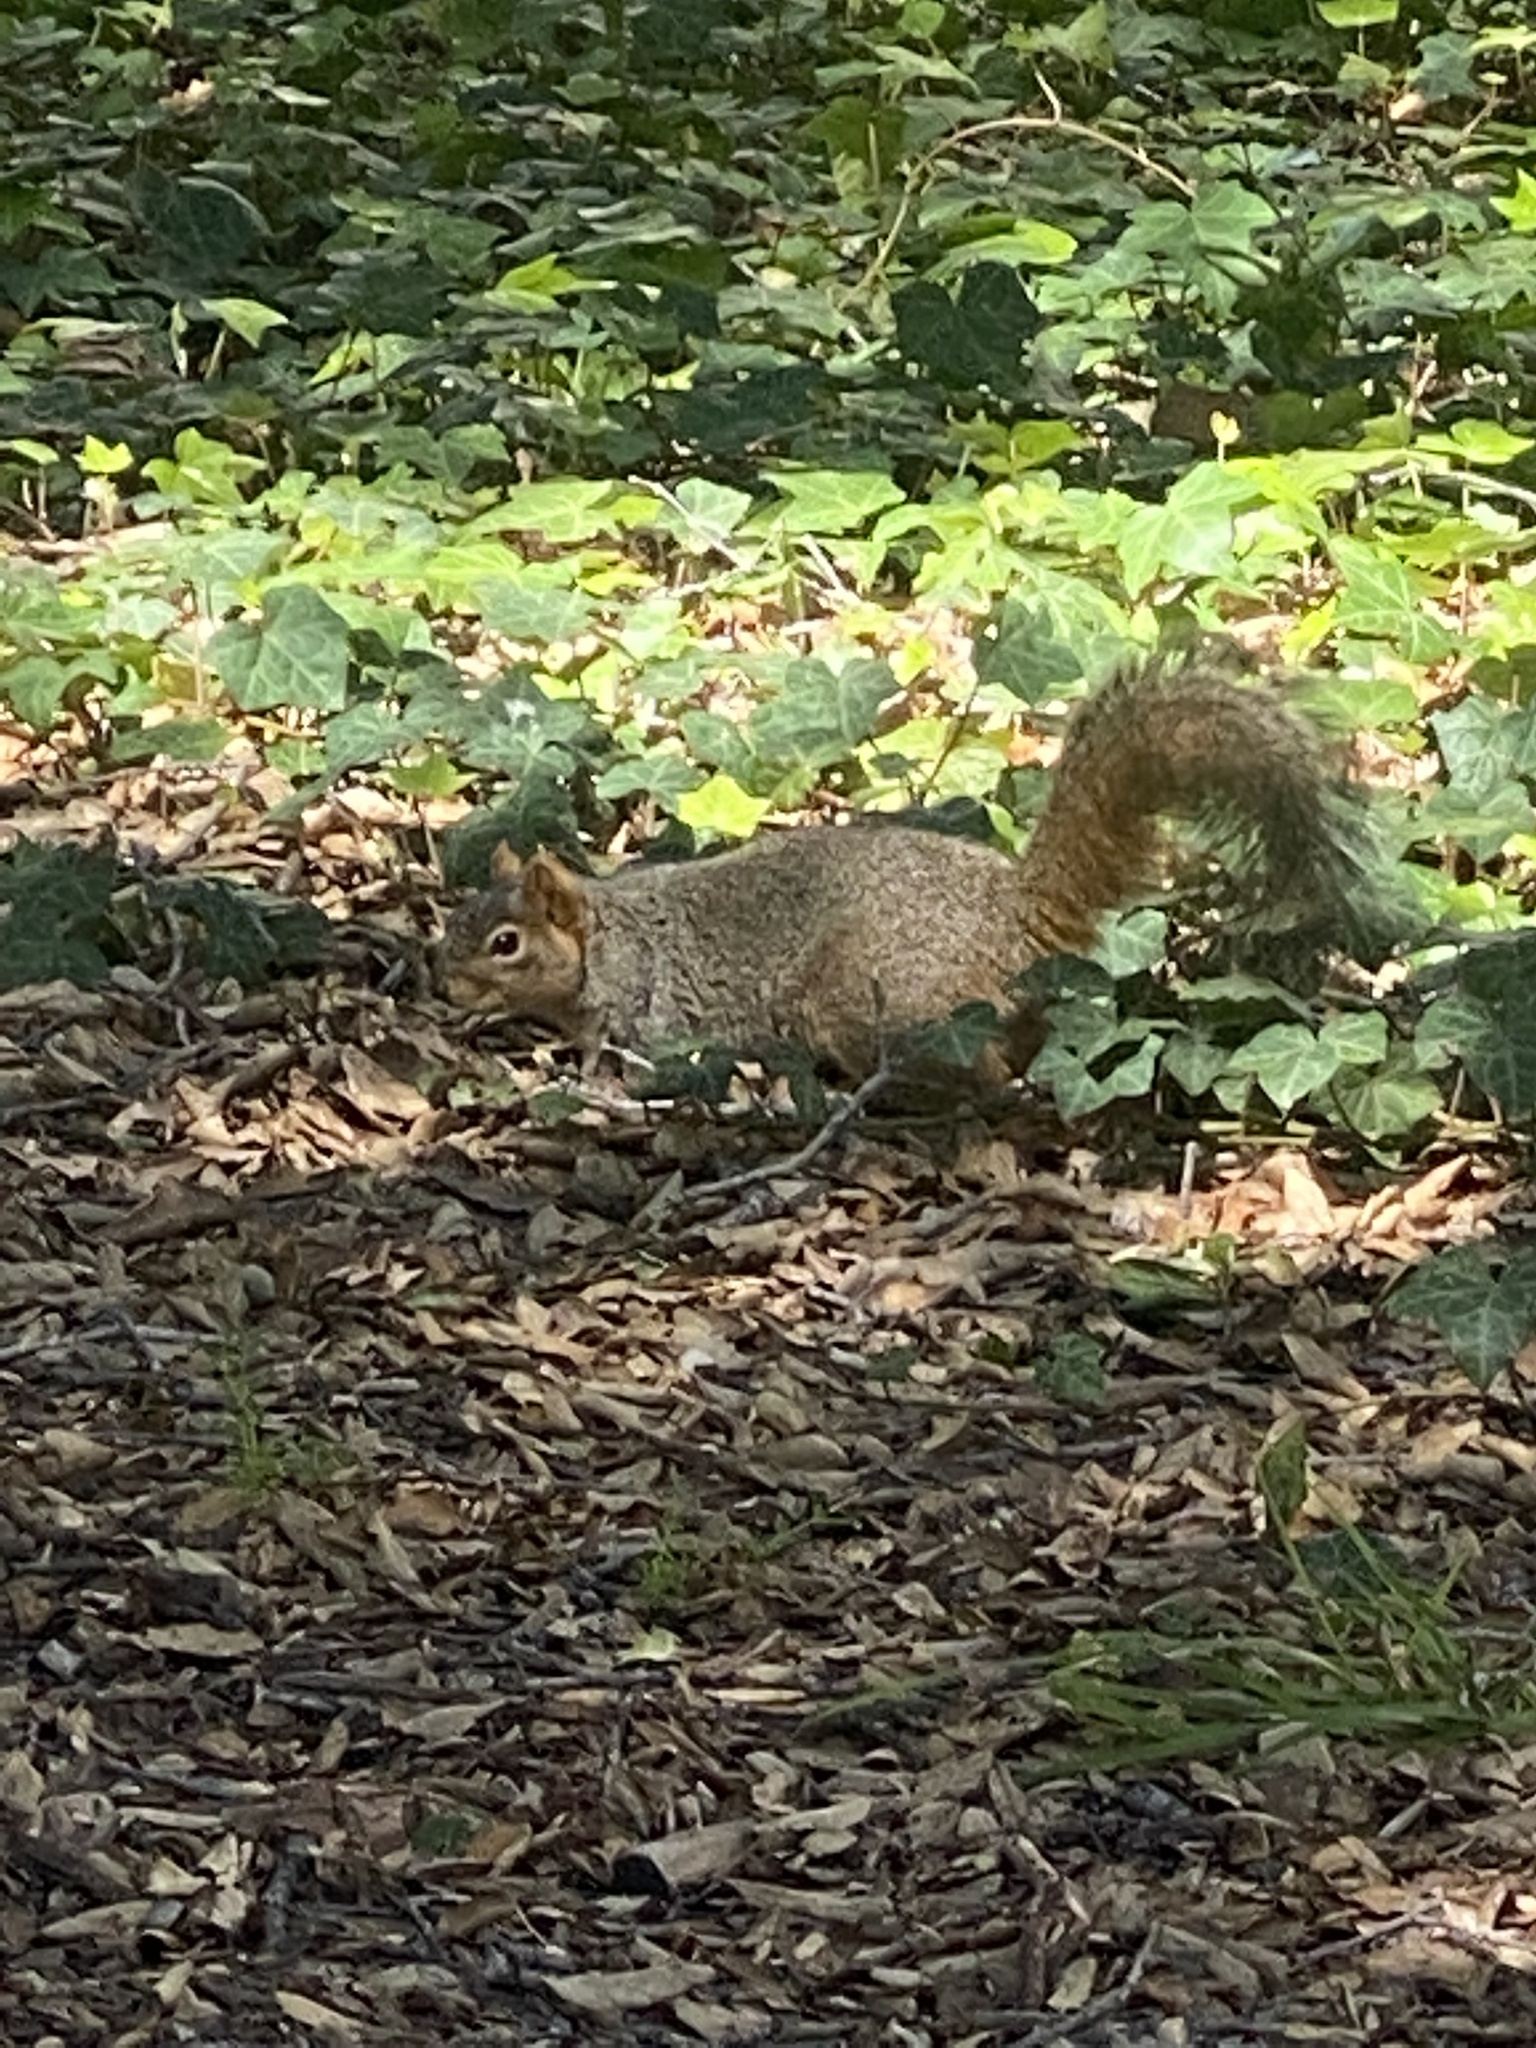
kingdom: Animalia
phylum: Chordata
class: Mammalia
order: Rodentia
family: Sciuridae
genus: Sciurus
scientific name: Sciurus niger
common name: Fox squirrel
